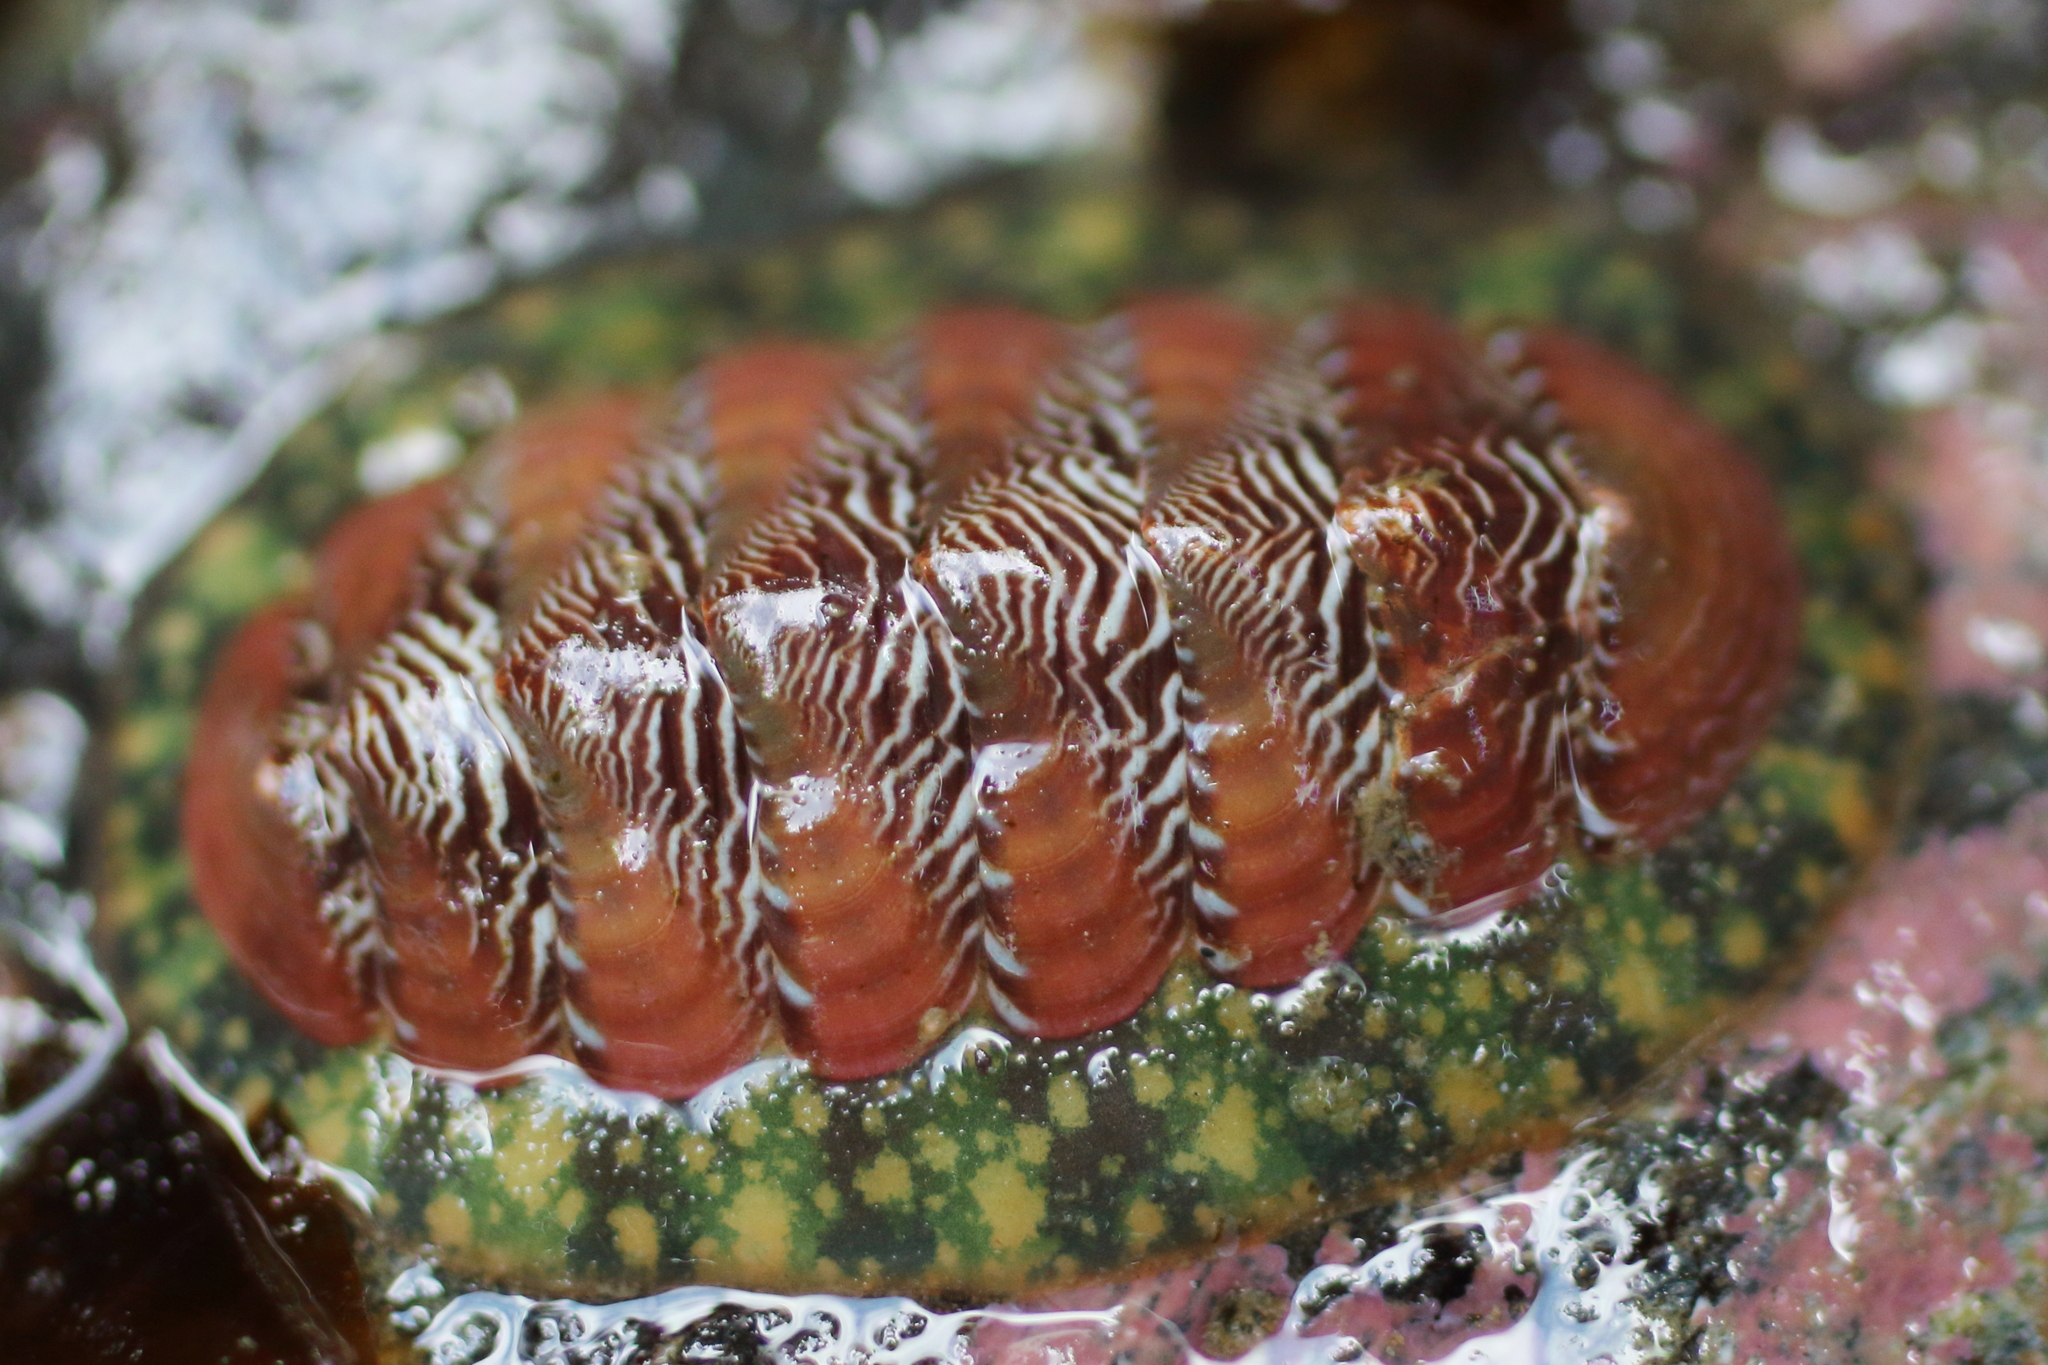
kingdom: Animalia
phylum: Mollusca
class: Polyplacophora
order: Chitonida
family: Tonicellidae
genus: Tonicella
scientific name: Tonicella insignis
